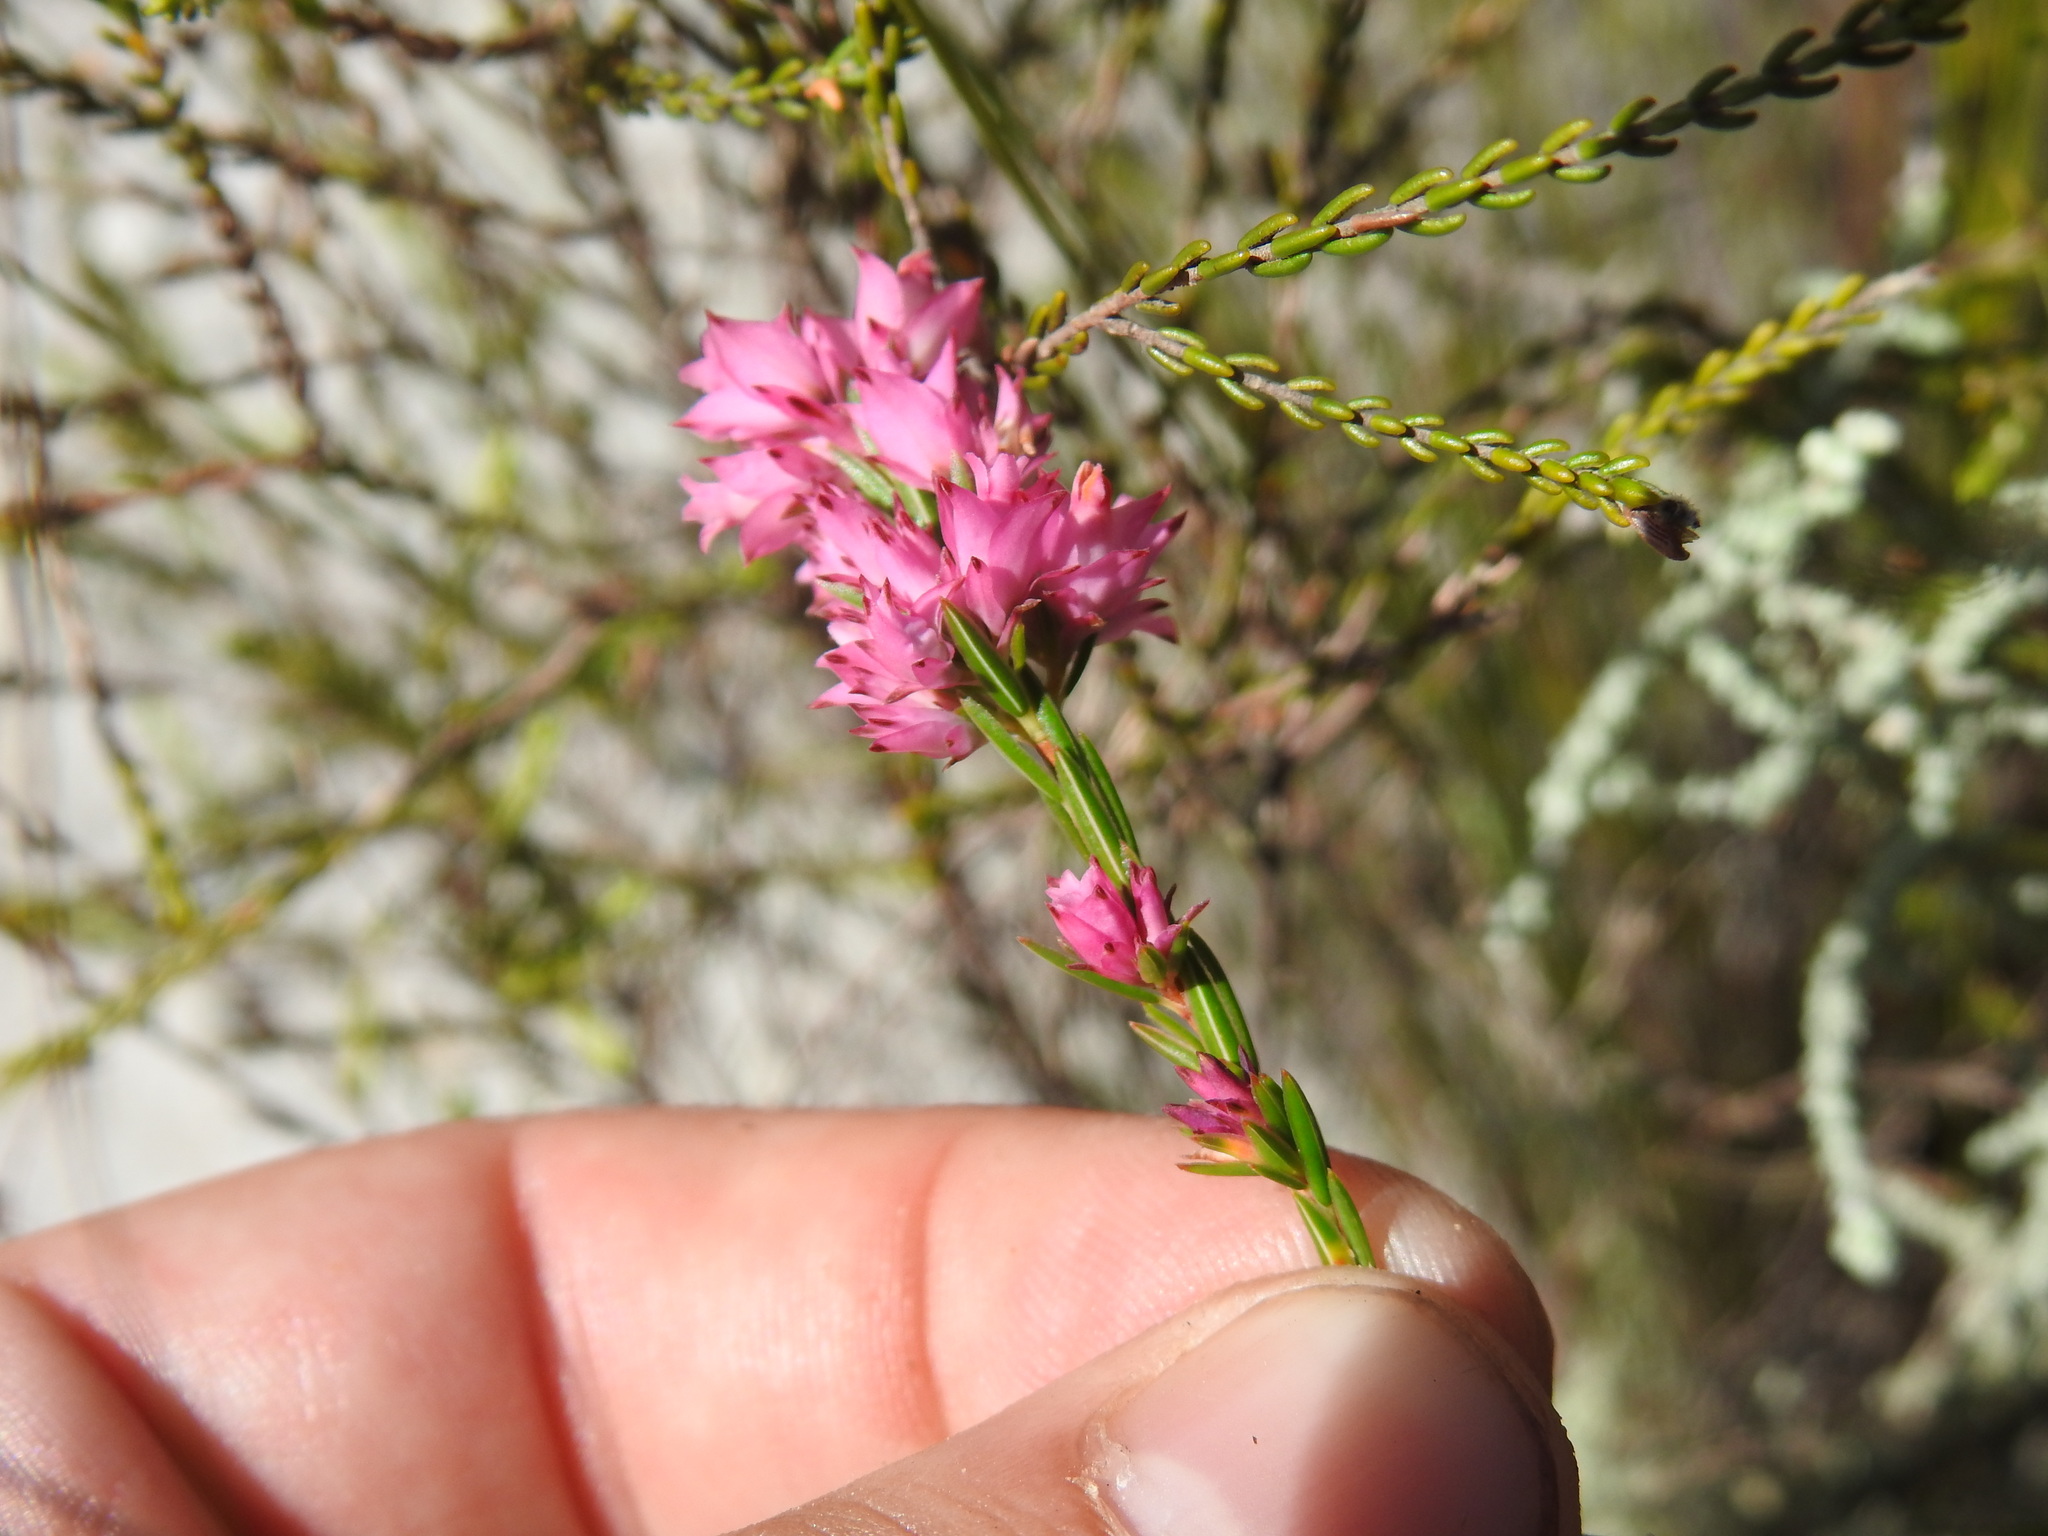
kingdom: Plantae
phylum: Tracheophyta
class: Magnoliopsida
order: Ericales
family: Ericaceae
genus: Erica
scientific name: Erica taxifolia
